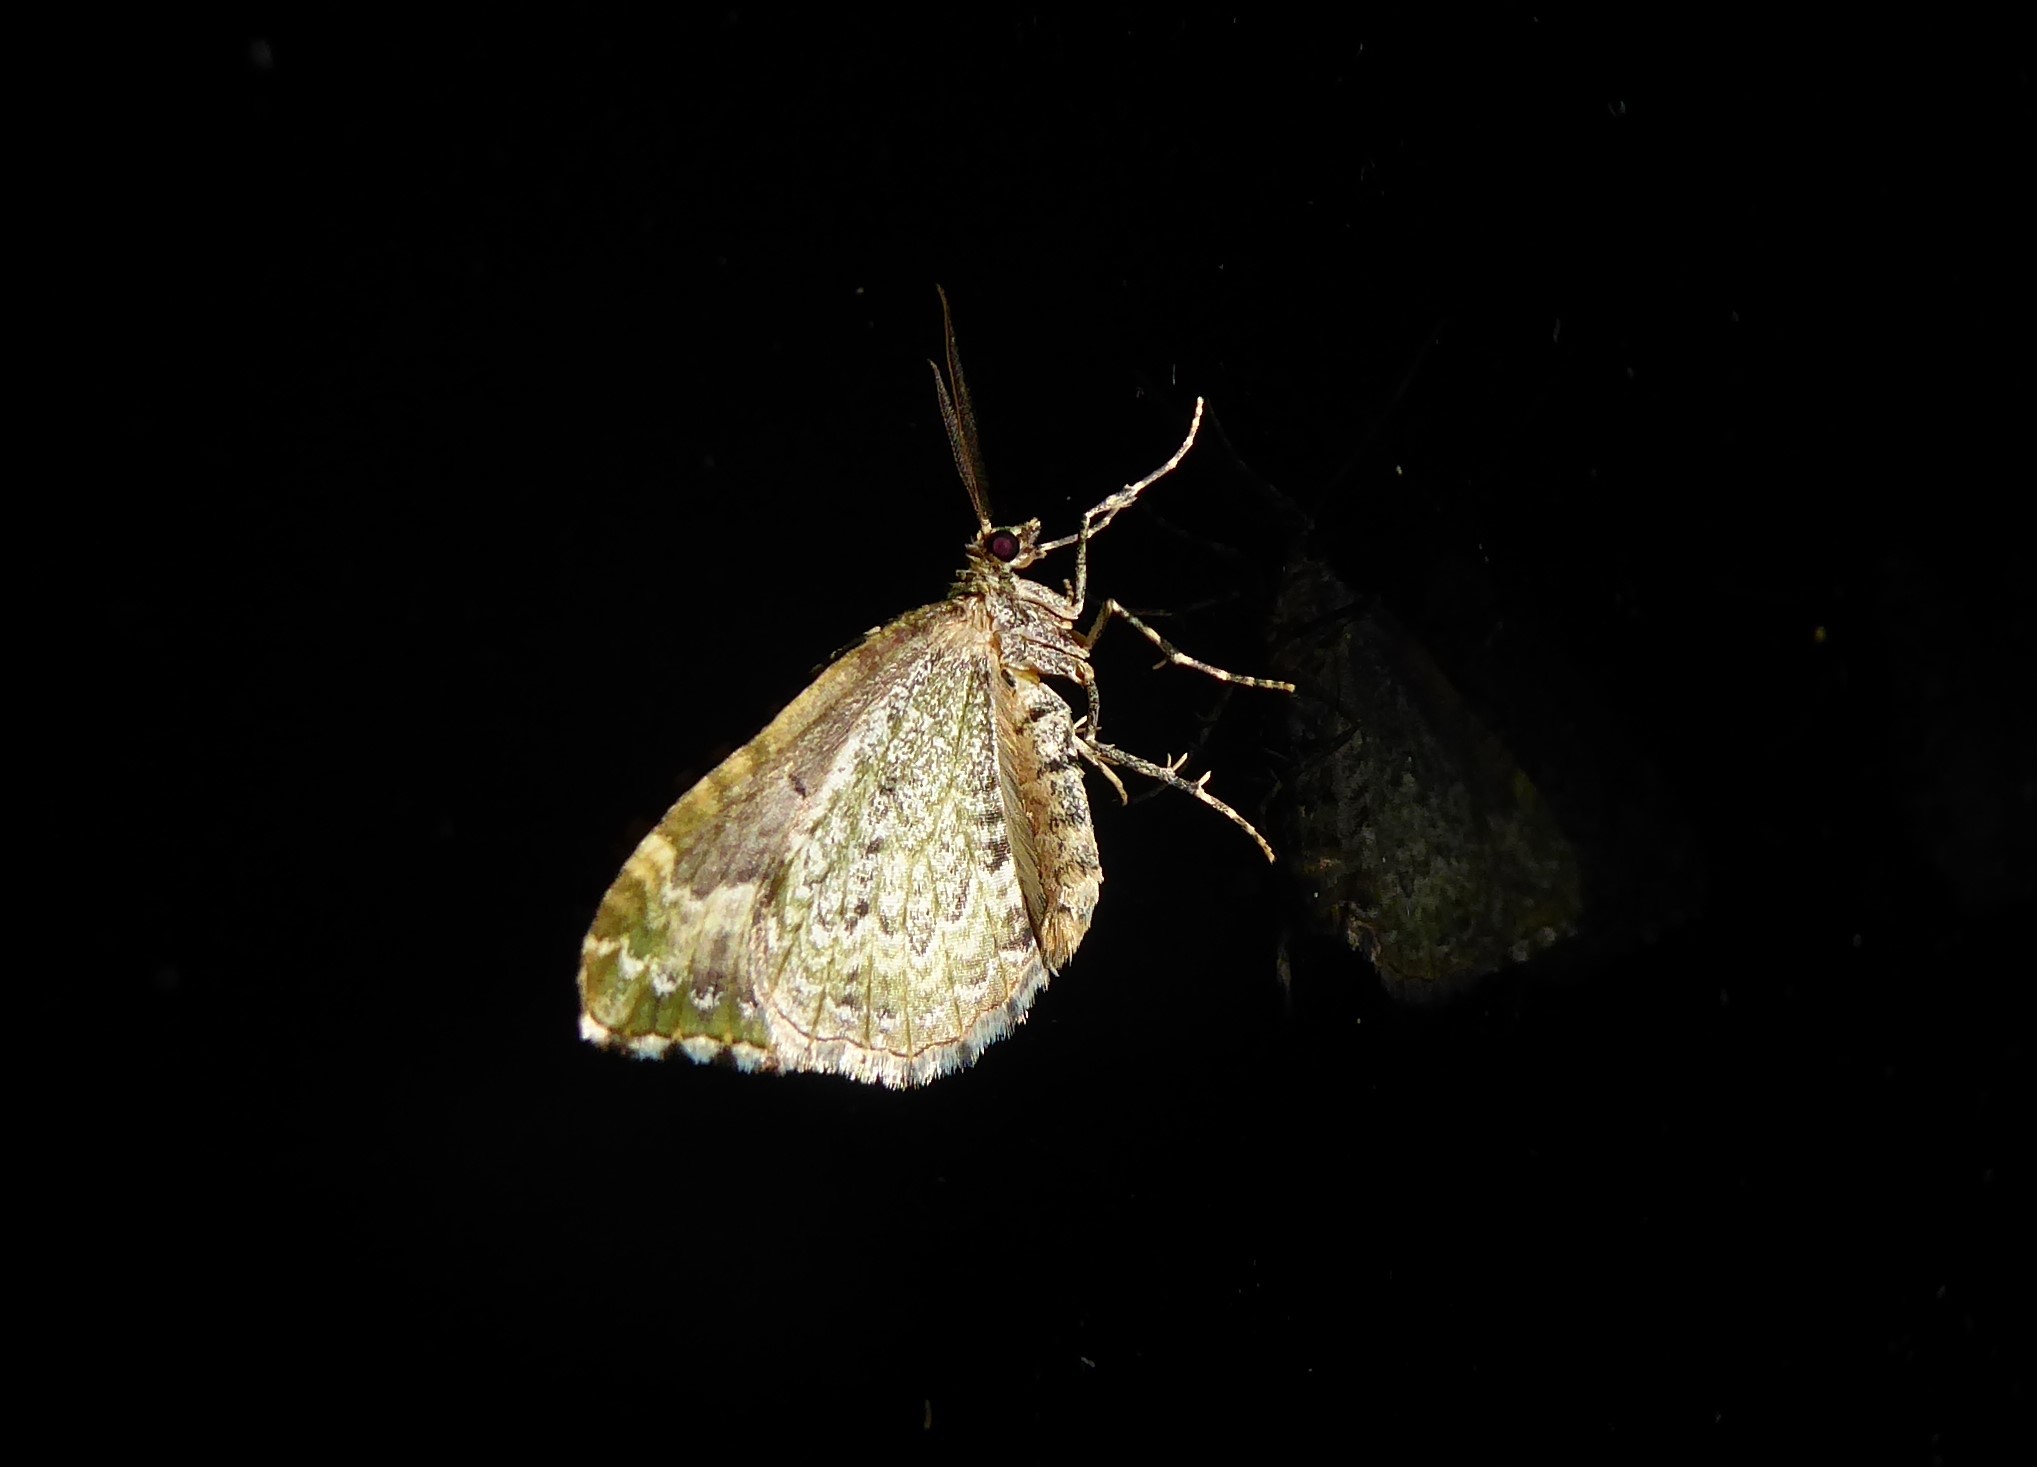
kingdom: Animalia
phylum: Arthropoda
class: Insecta
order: Lepidoptera
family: Geometridae
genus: Asaphodes
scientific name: Asaphodes beata
